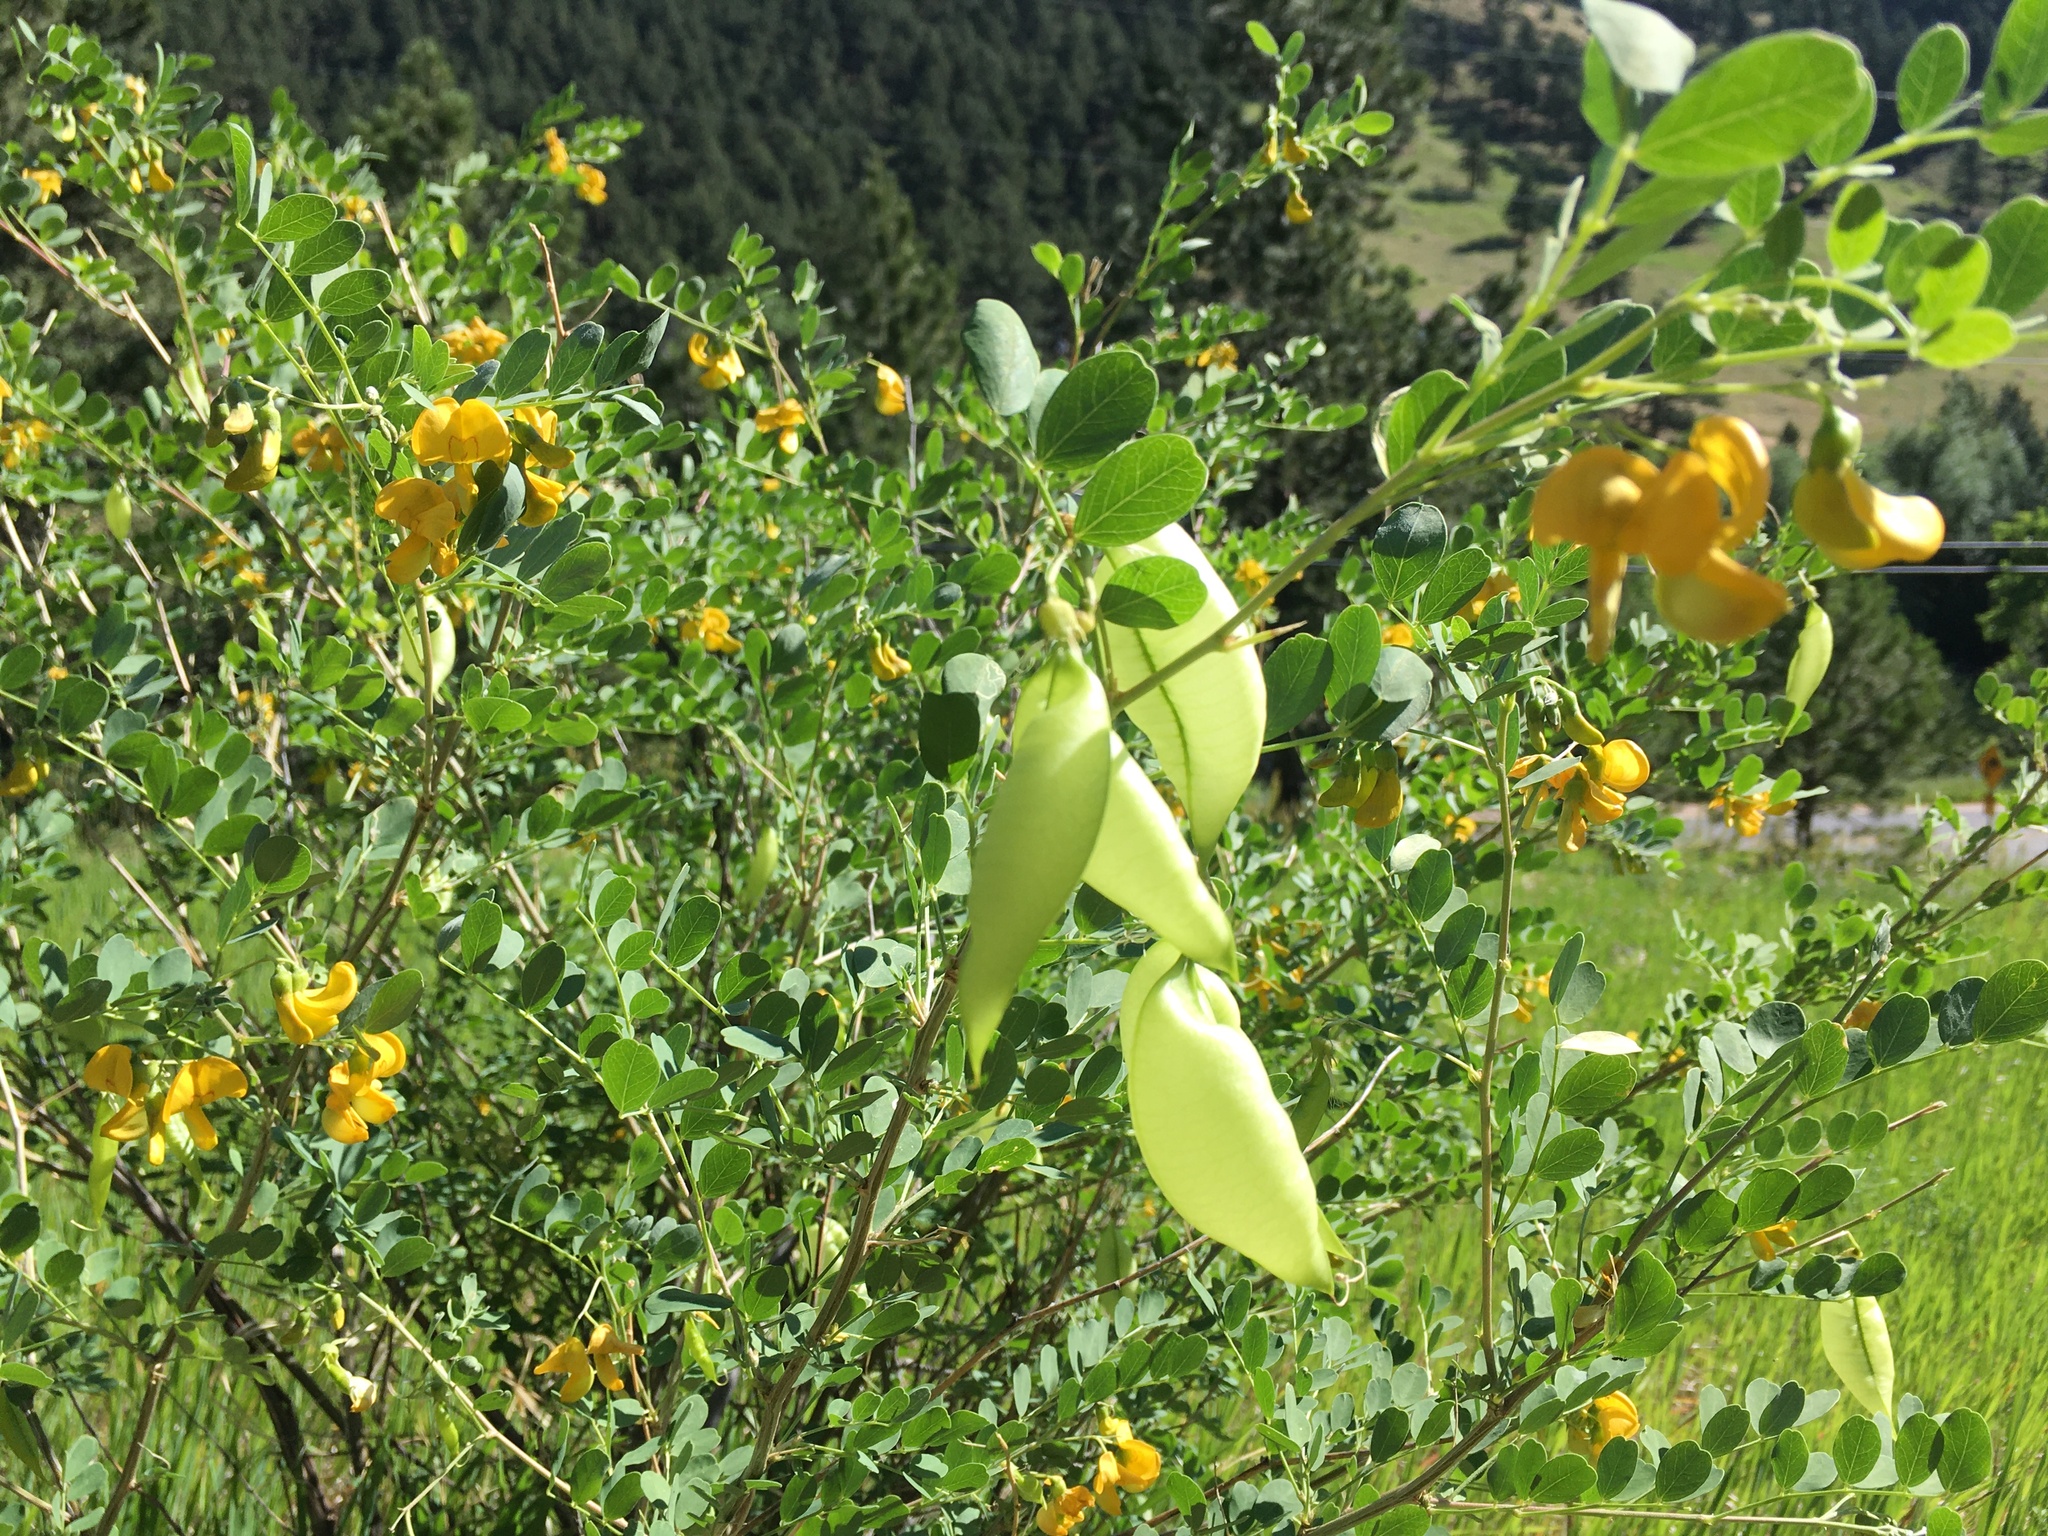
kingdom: Plantae
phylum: Tracheophyta
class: Magnoliopsida
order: Fabales
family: Fabaceae
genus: Colutea
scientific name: Colutea arborescens
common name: Bladder-senna
